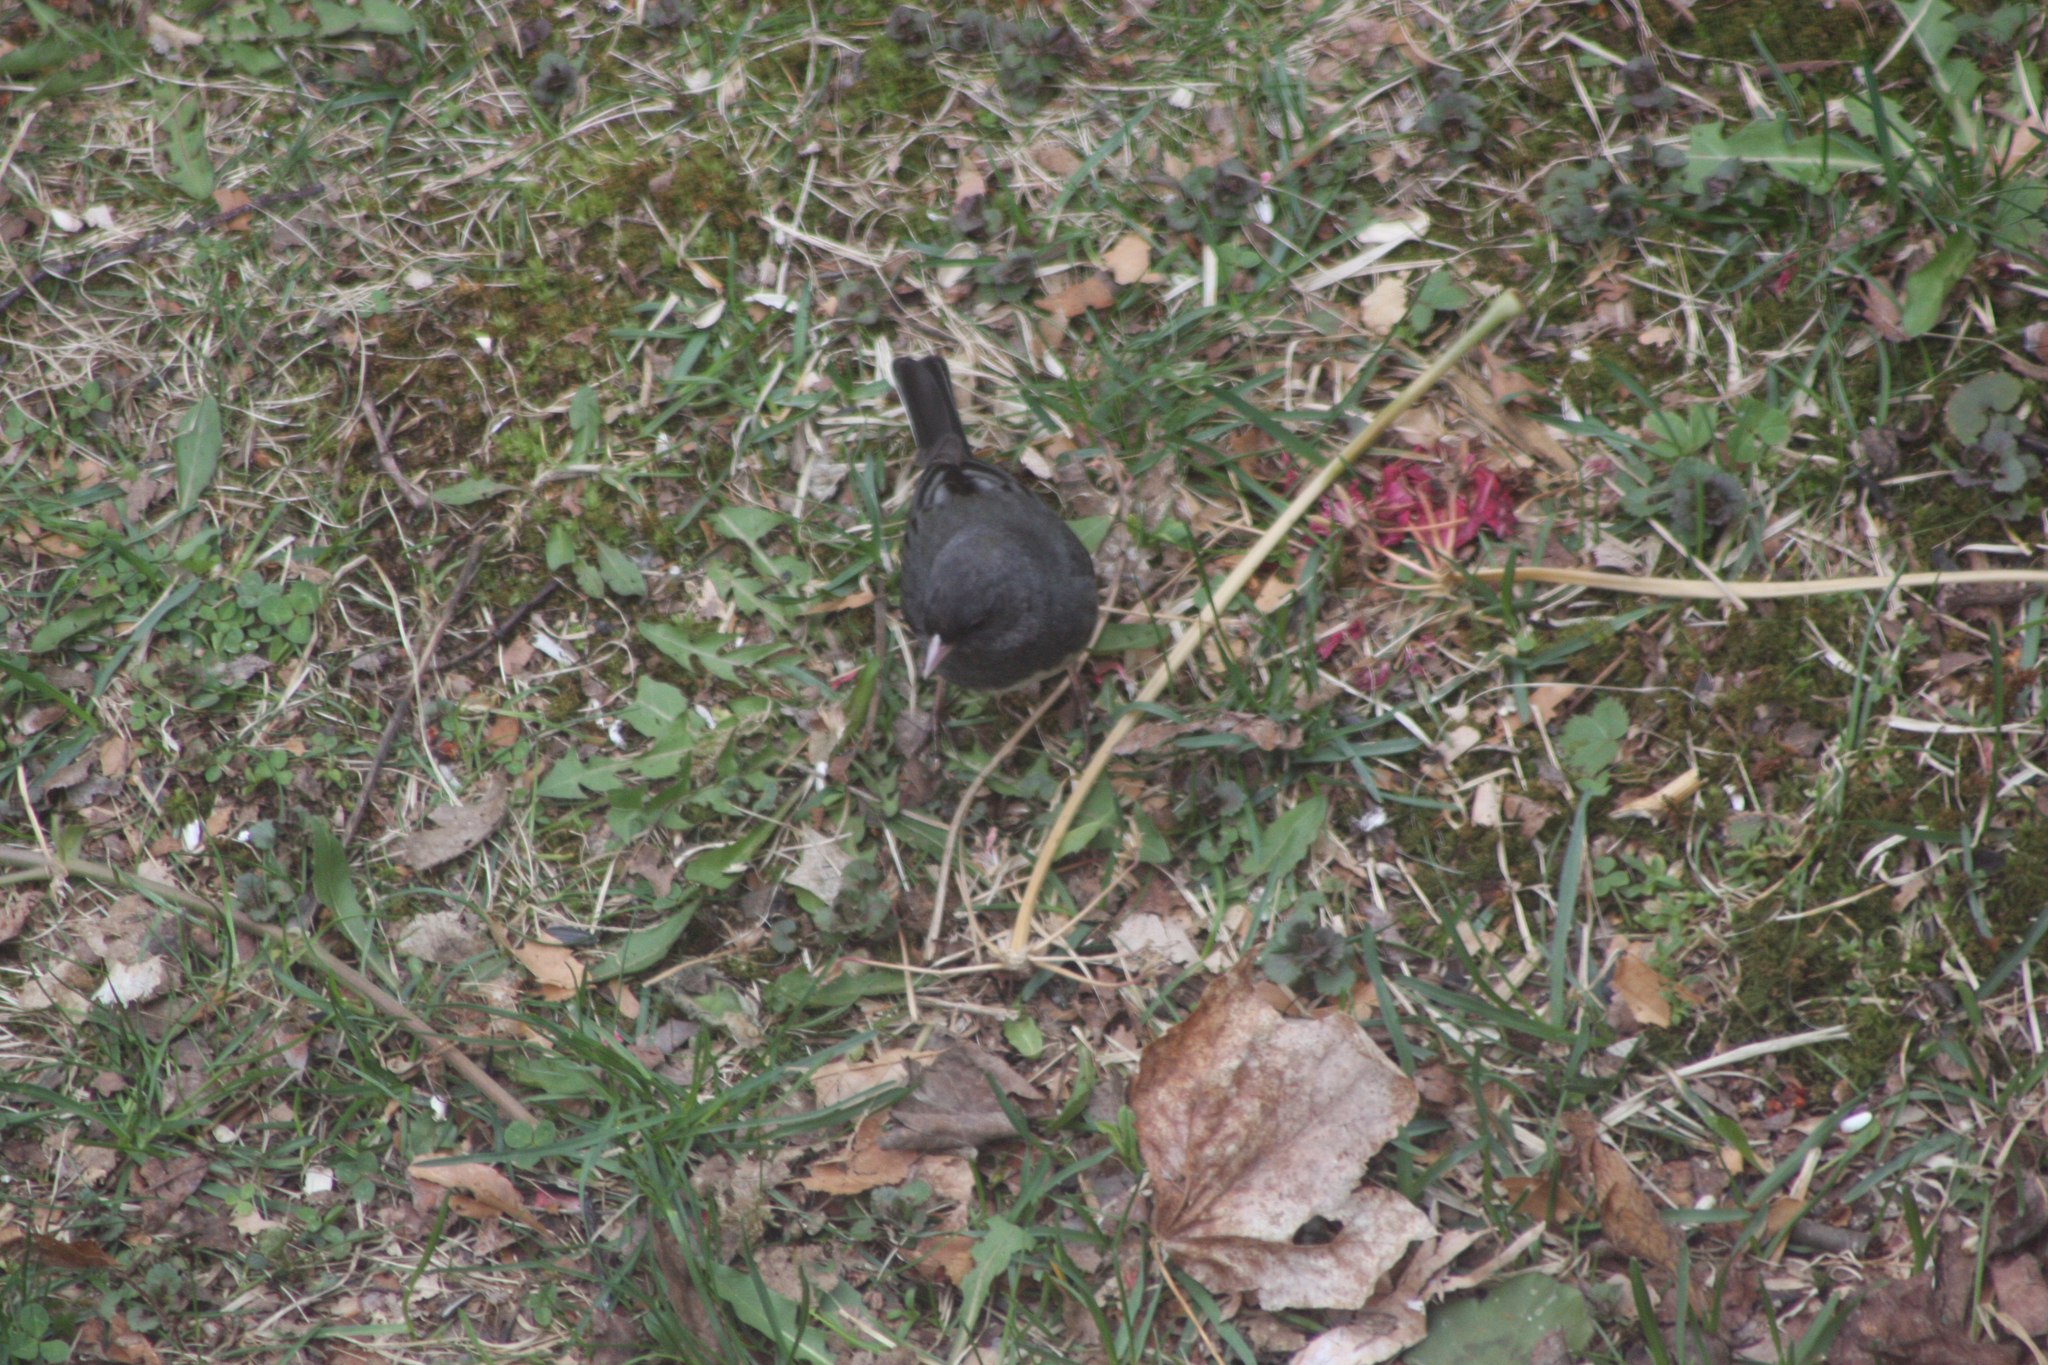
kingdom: Animalia
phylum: Chordata
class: Aves
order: Passeriformes
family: Passerellidae
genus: Junco
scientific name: Junco hyemalis
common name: Dark-eyed junco
